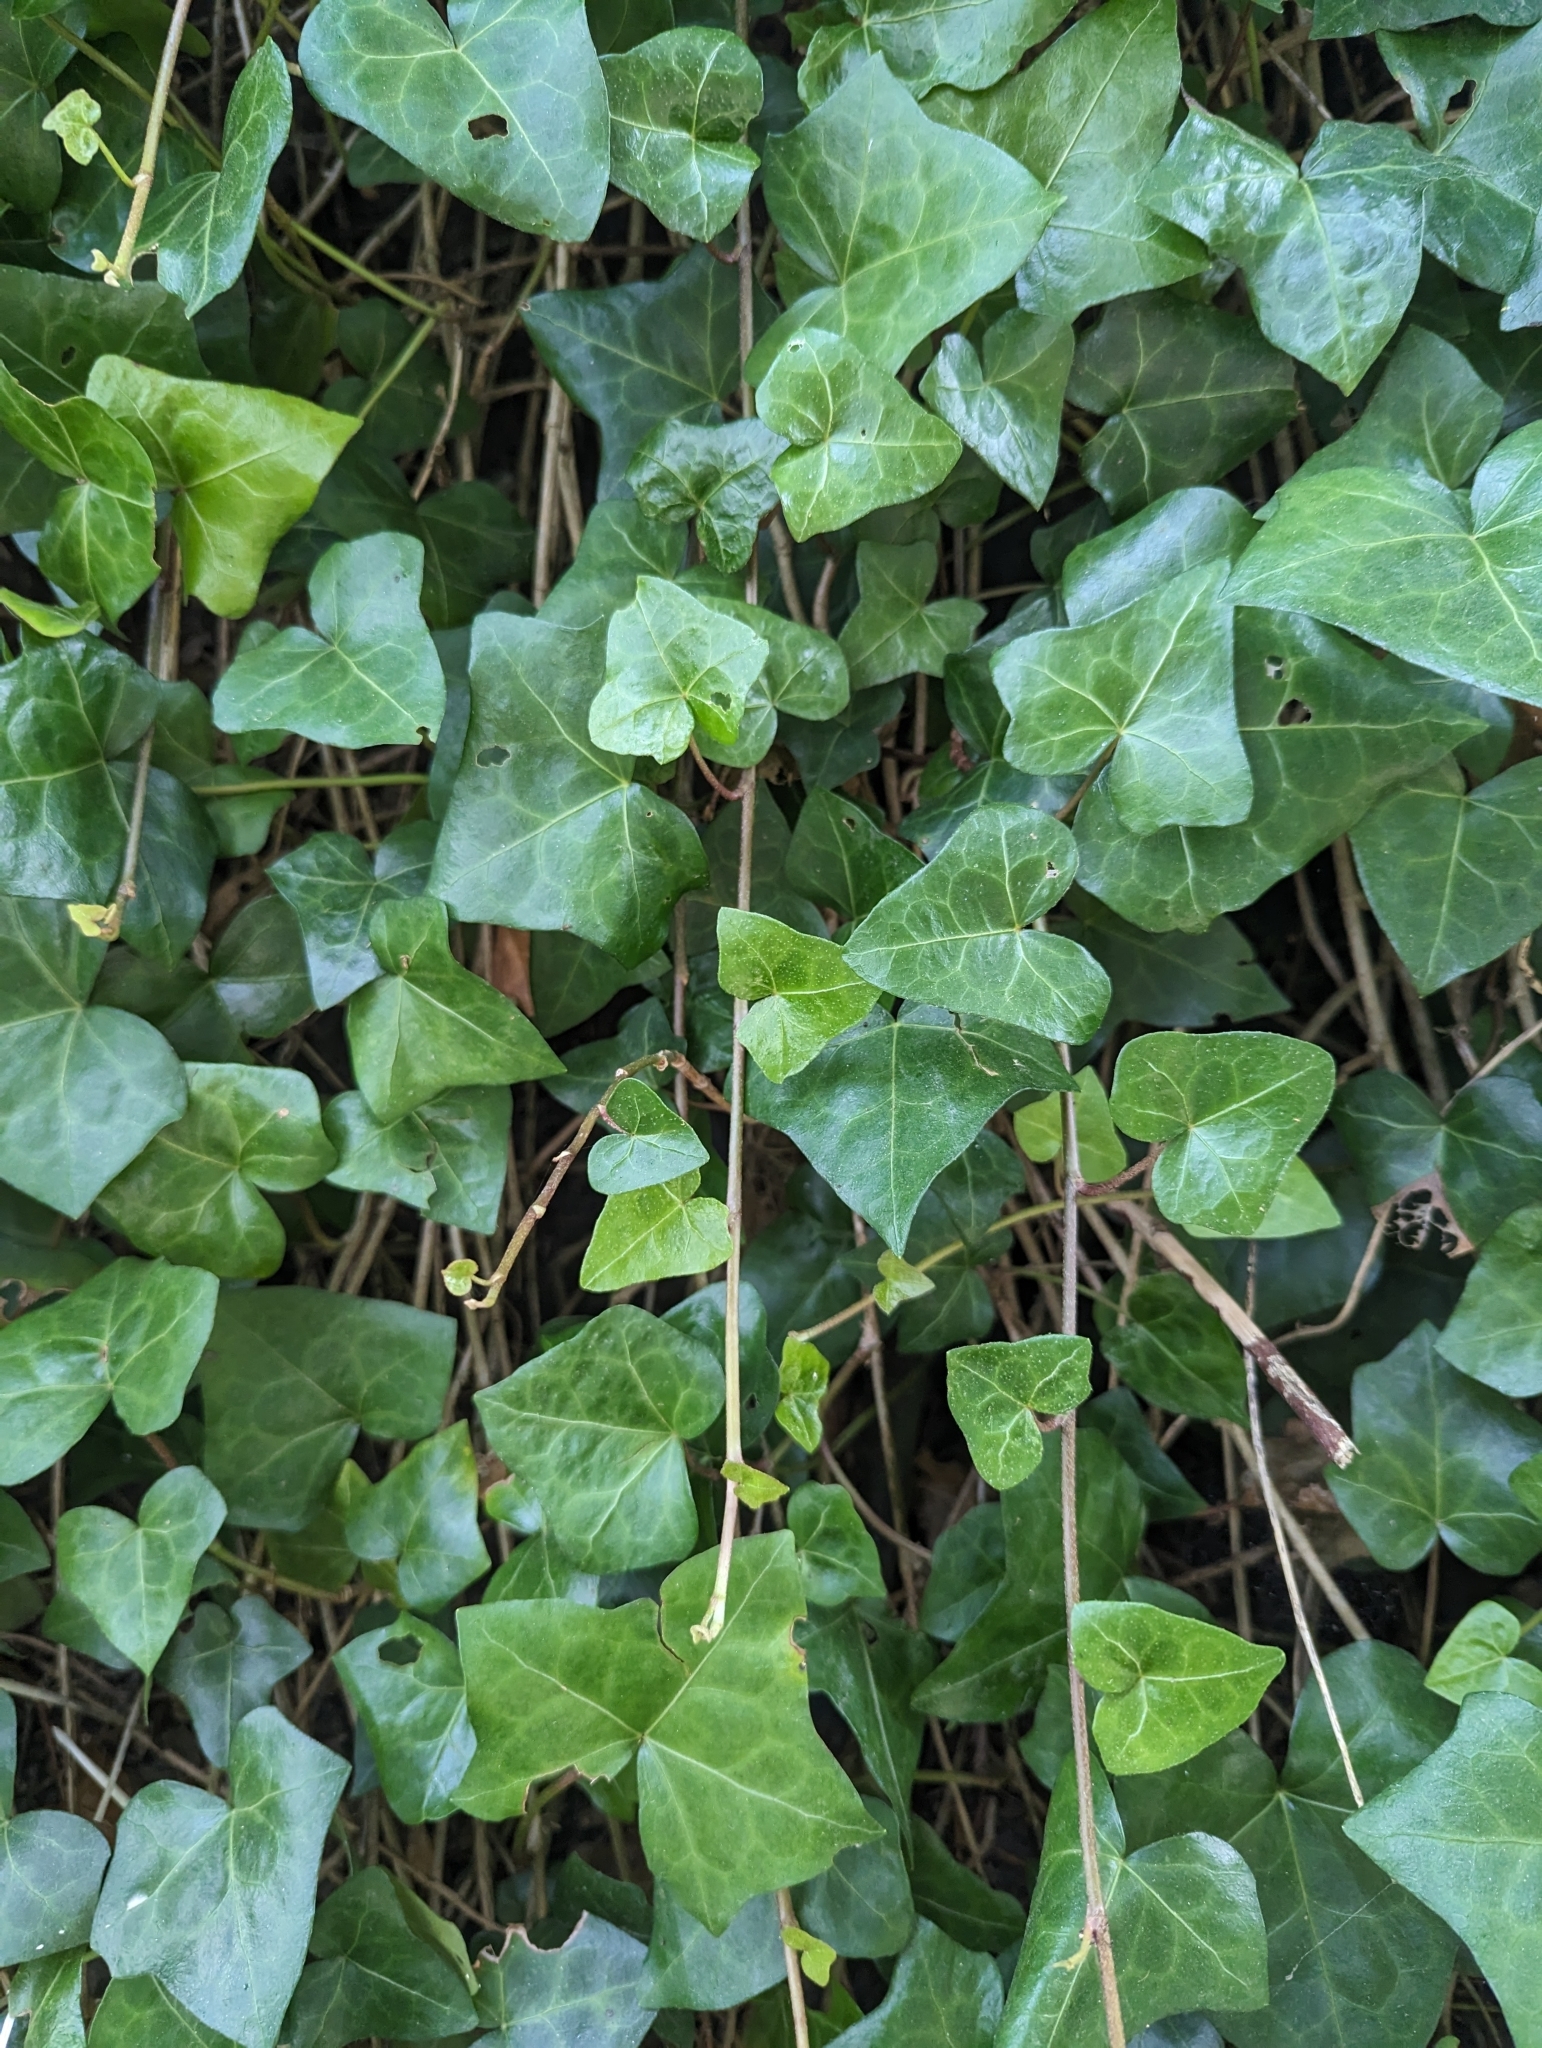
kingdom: Plantae
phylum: Tracheophyta
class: Magnoliopsida
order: Apiales
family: Araliaceae
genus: Hedera
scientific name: Hedera helix
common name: Ivy
